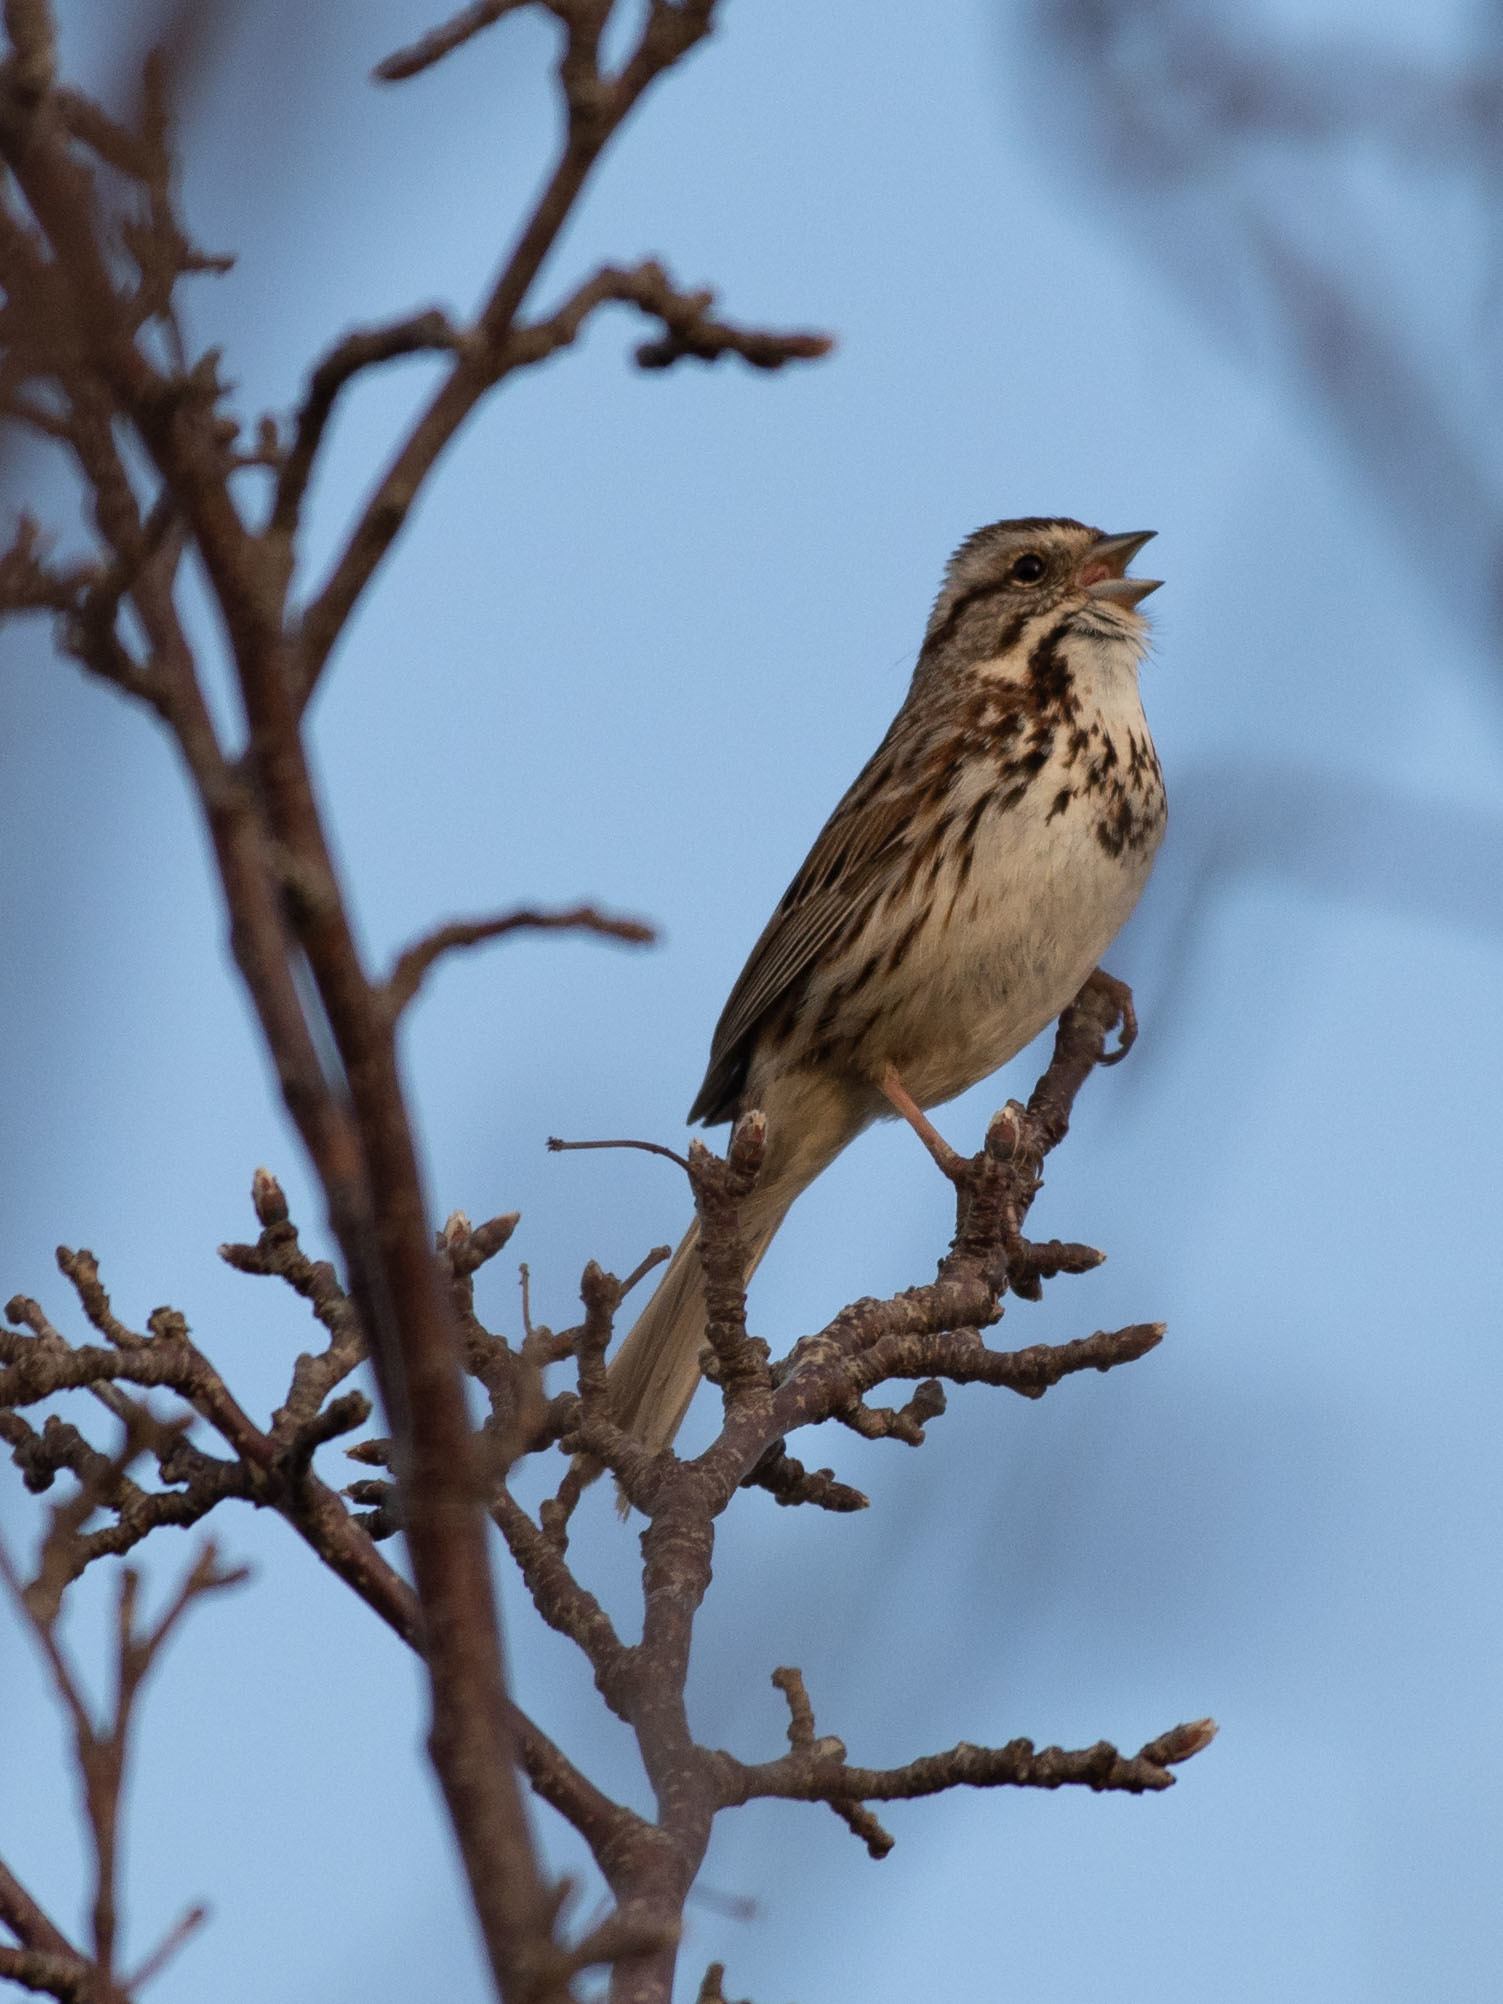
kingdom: Animalia
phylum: Chordata
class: Aves
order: Passeriformes
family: Passerellidae
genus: Melospiza
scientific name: Melospiza melodia
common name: Song sparrow
